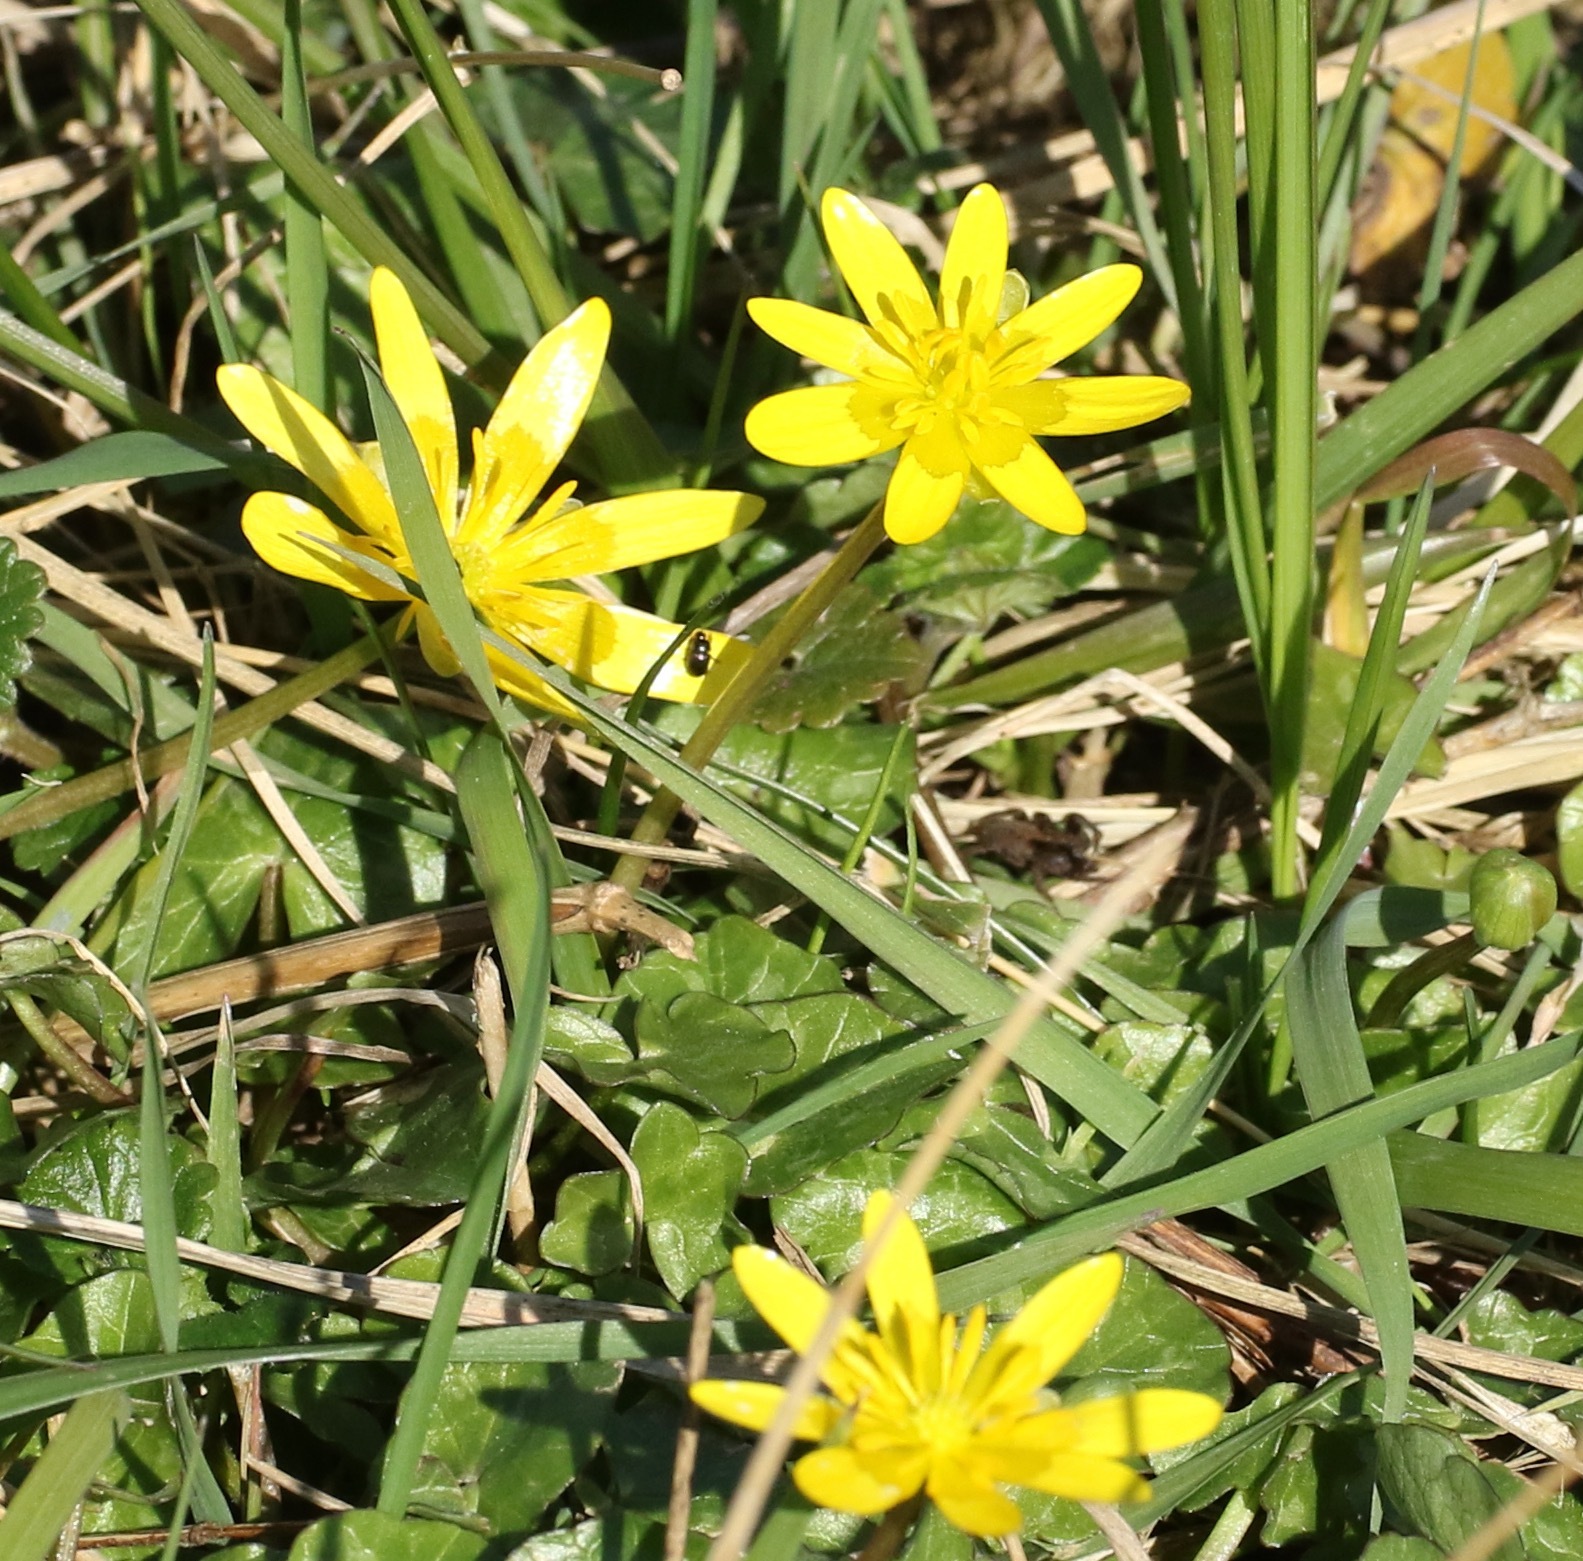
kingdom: Plantae
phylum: Tracheophyta
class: Magnoliopsida
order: Ranunculales
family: Ranunculaceae
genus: Ficaria
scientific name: Ficaria verna
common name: Lesser celandine
